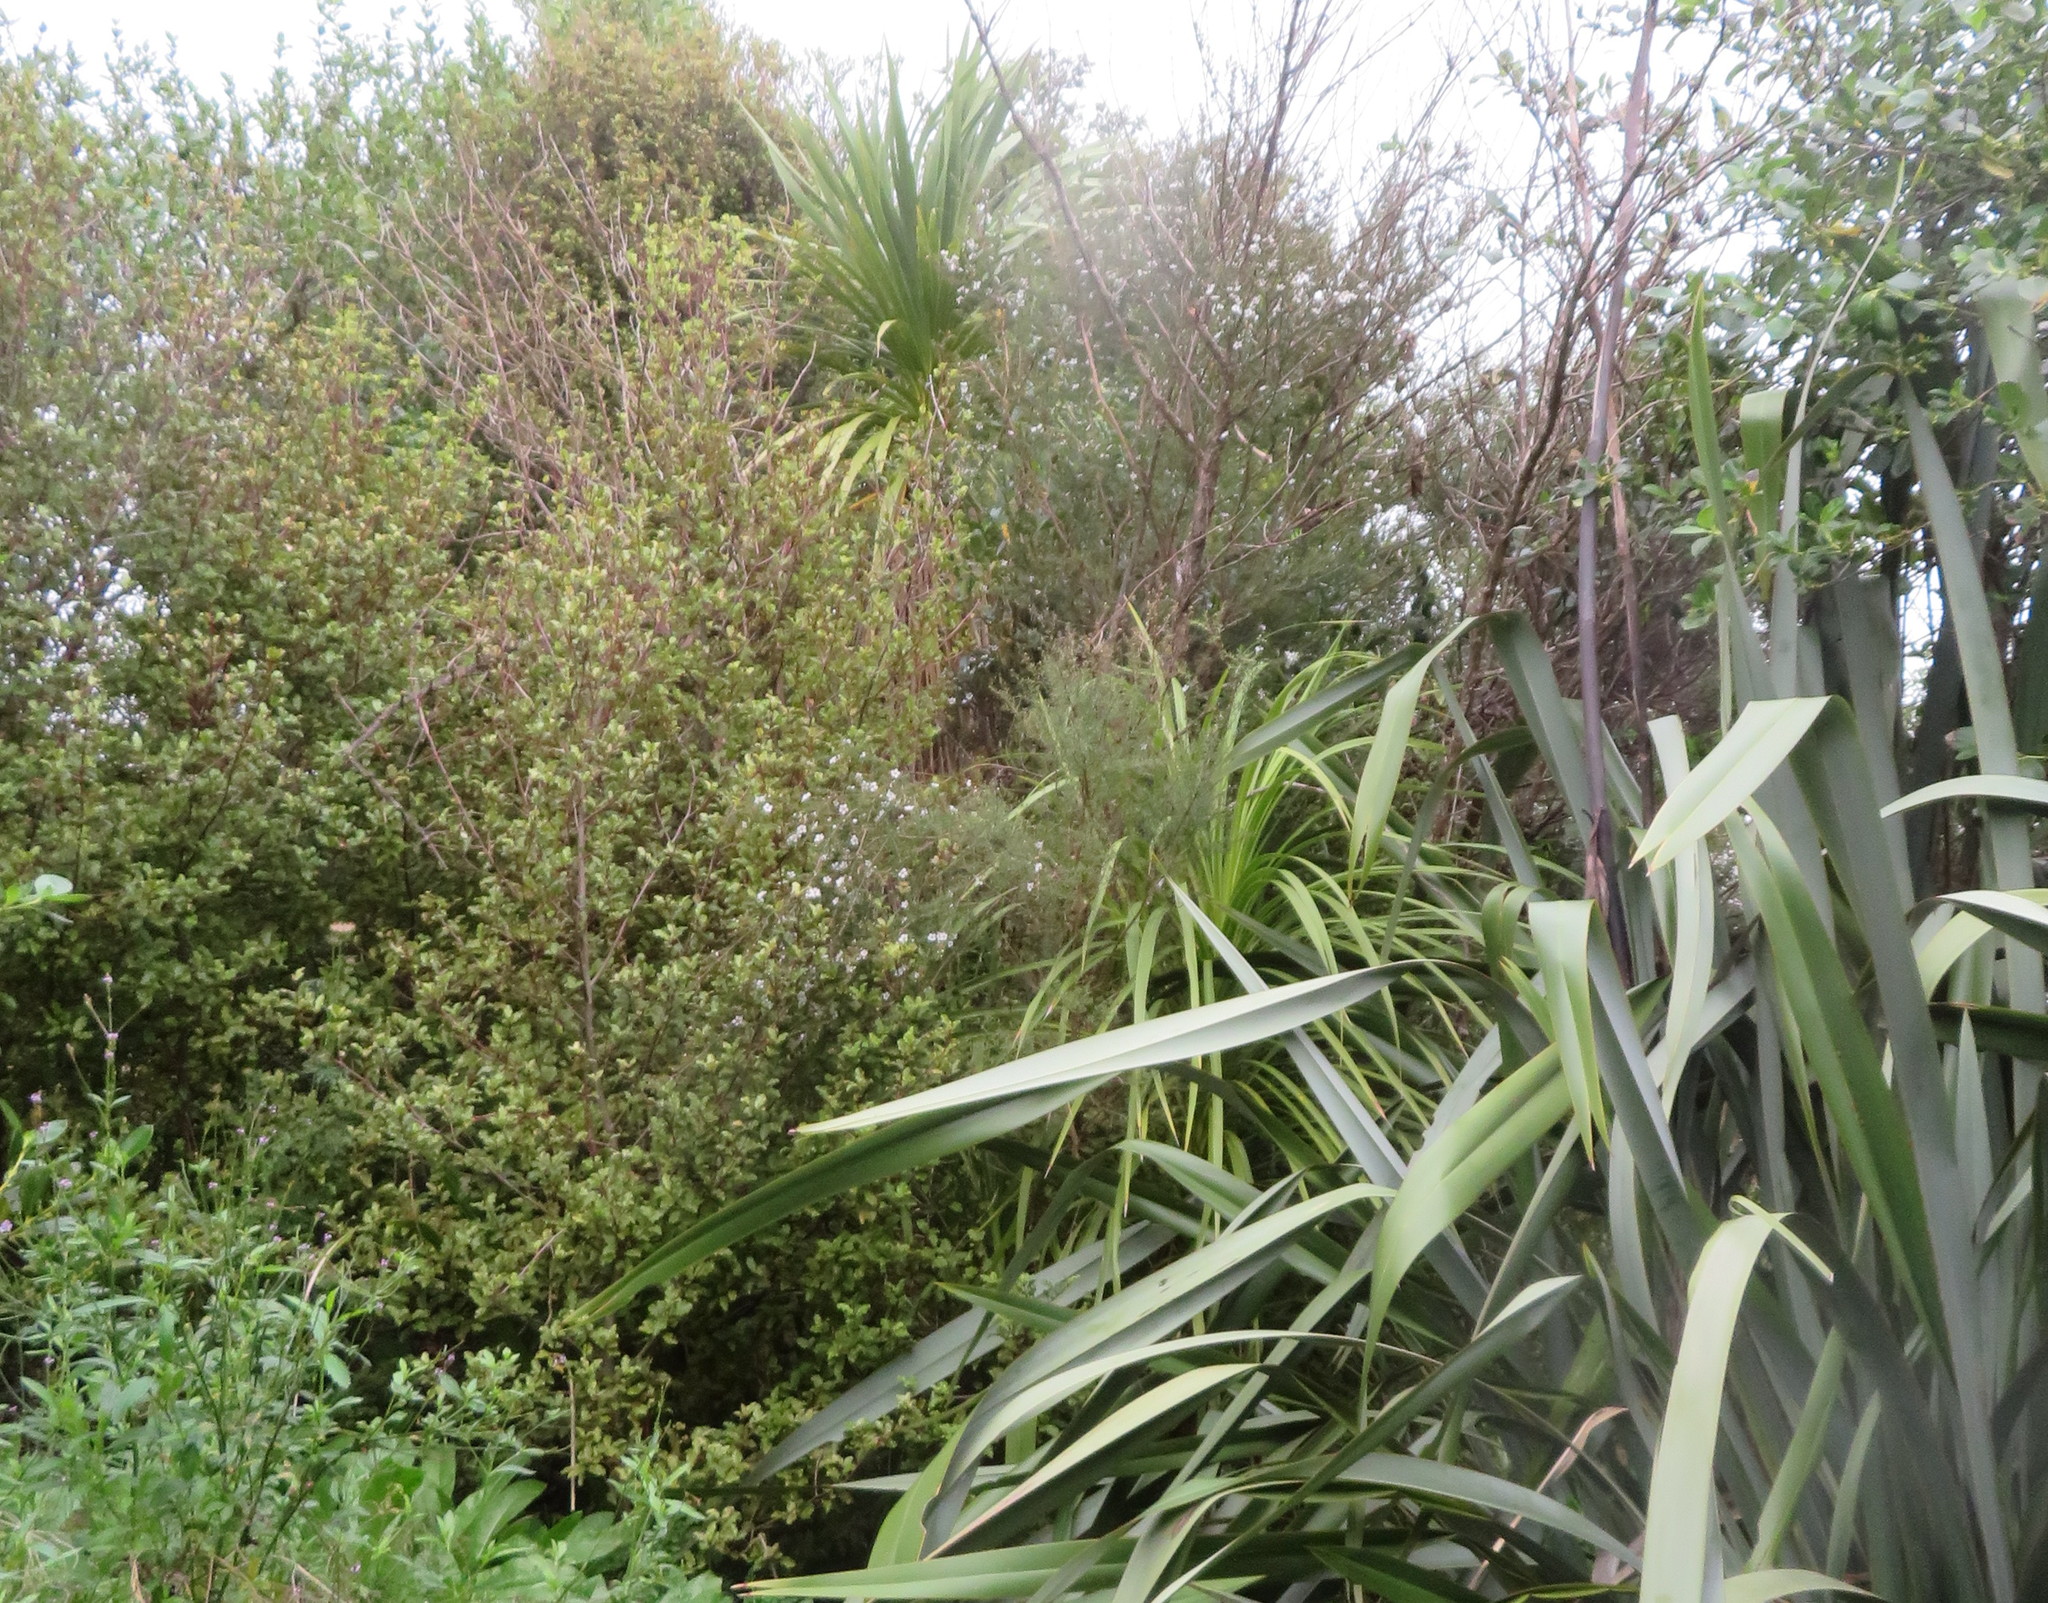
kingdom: Plantae
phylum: Tracheophyta
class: Liliopsida
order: Asparagales
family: Asparagaceae
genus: Cordyline
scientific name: Cordyline australis
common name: Cabbage-palm
